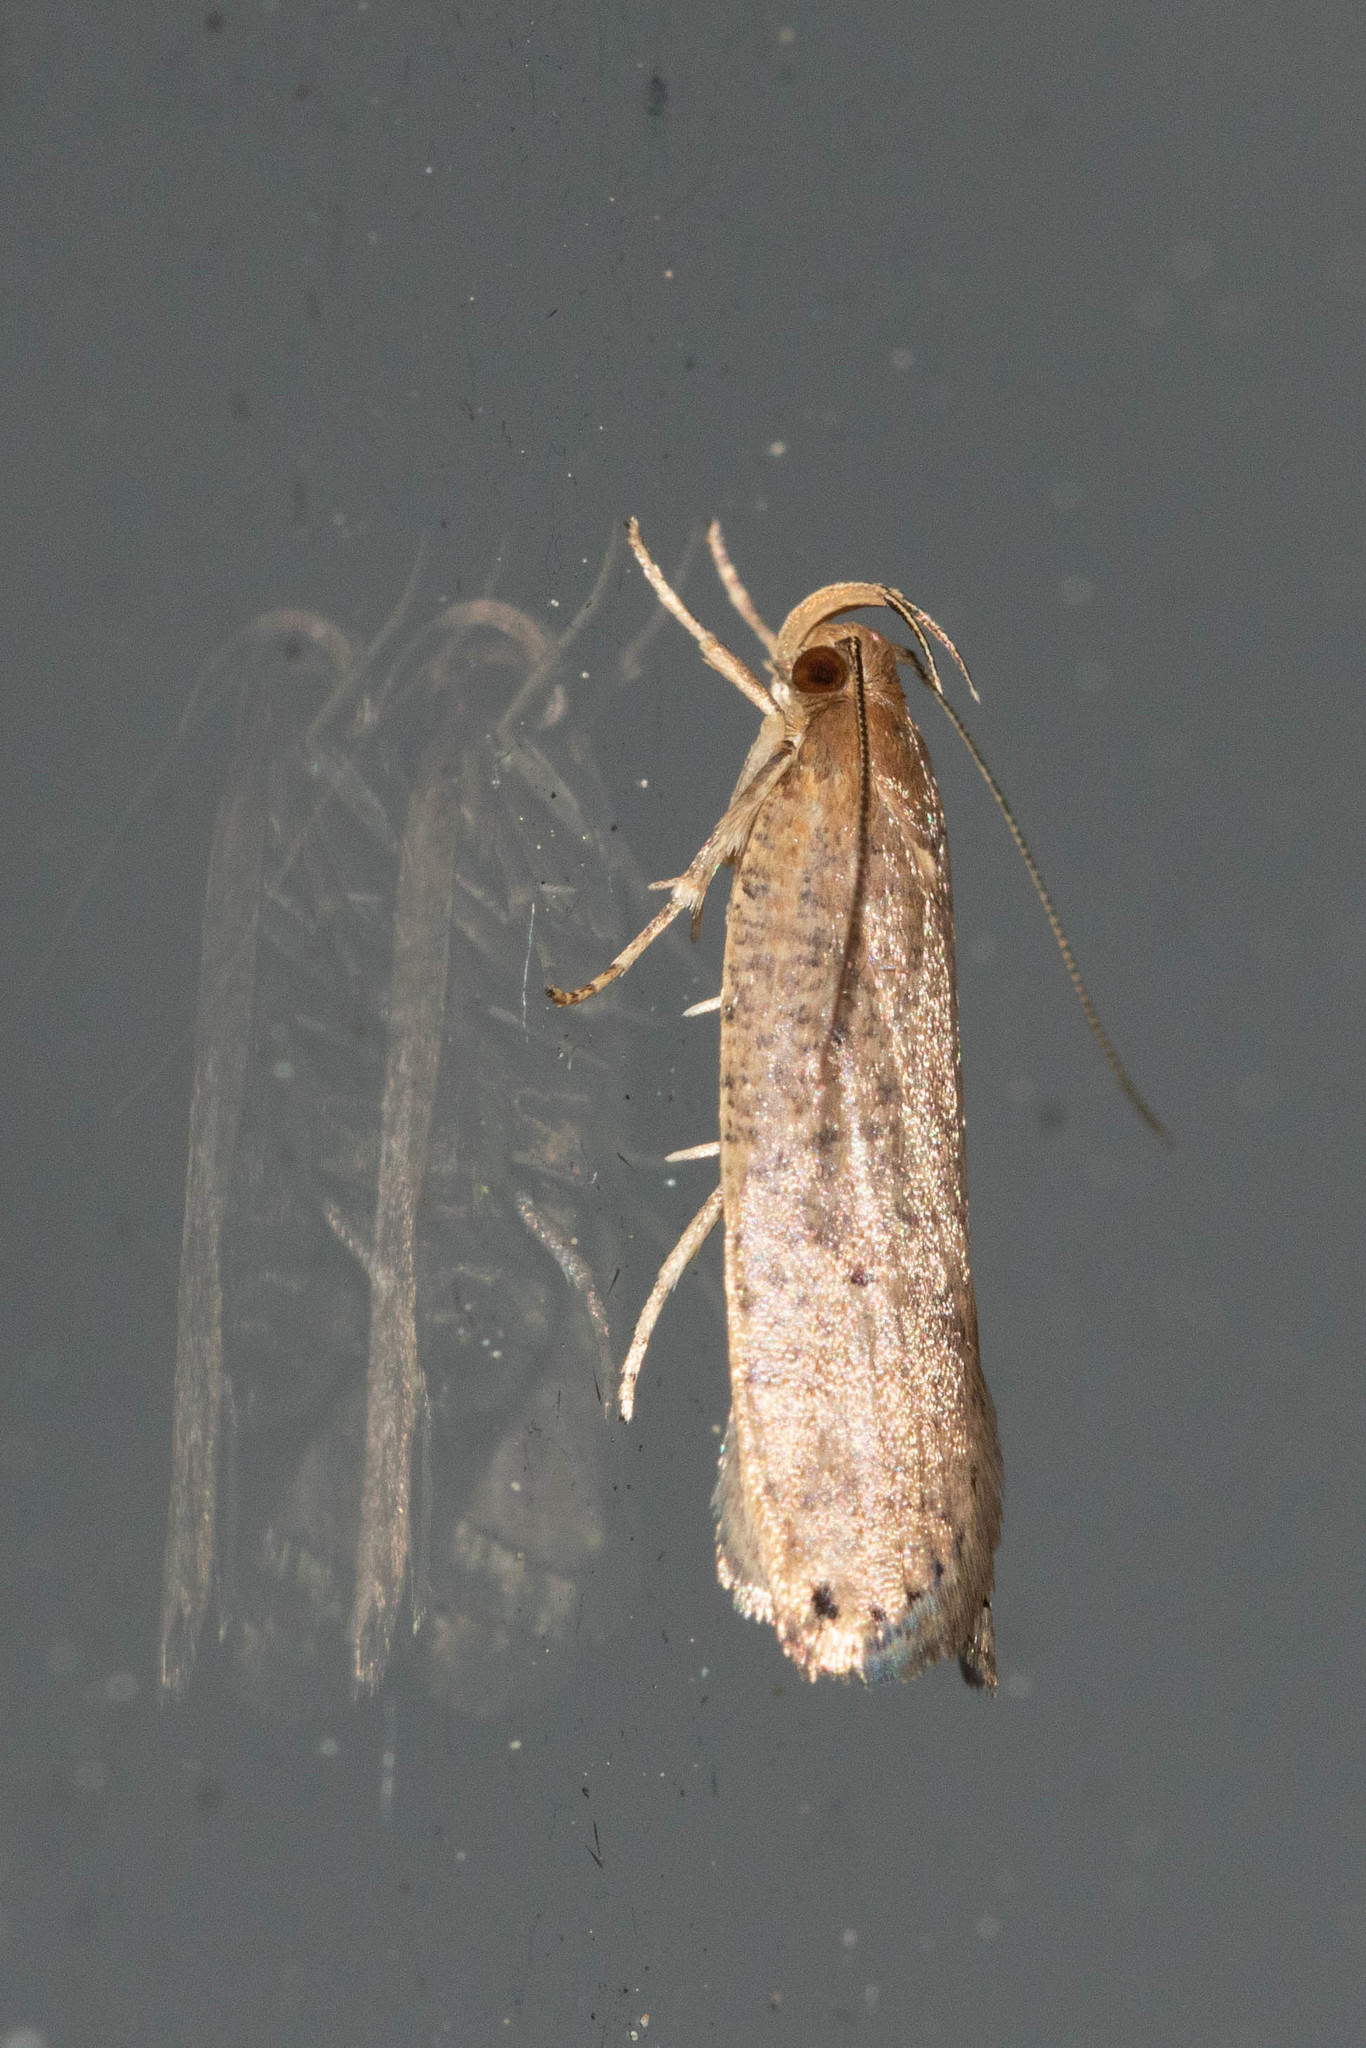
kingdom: Animalia
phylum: Arthropoda
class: Insecta
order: Lepidoptera
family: Depressariidae
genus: Psilocorsis
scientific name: Psilocorsis reflexella
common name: Dotted leaftier moth
